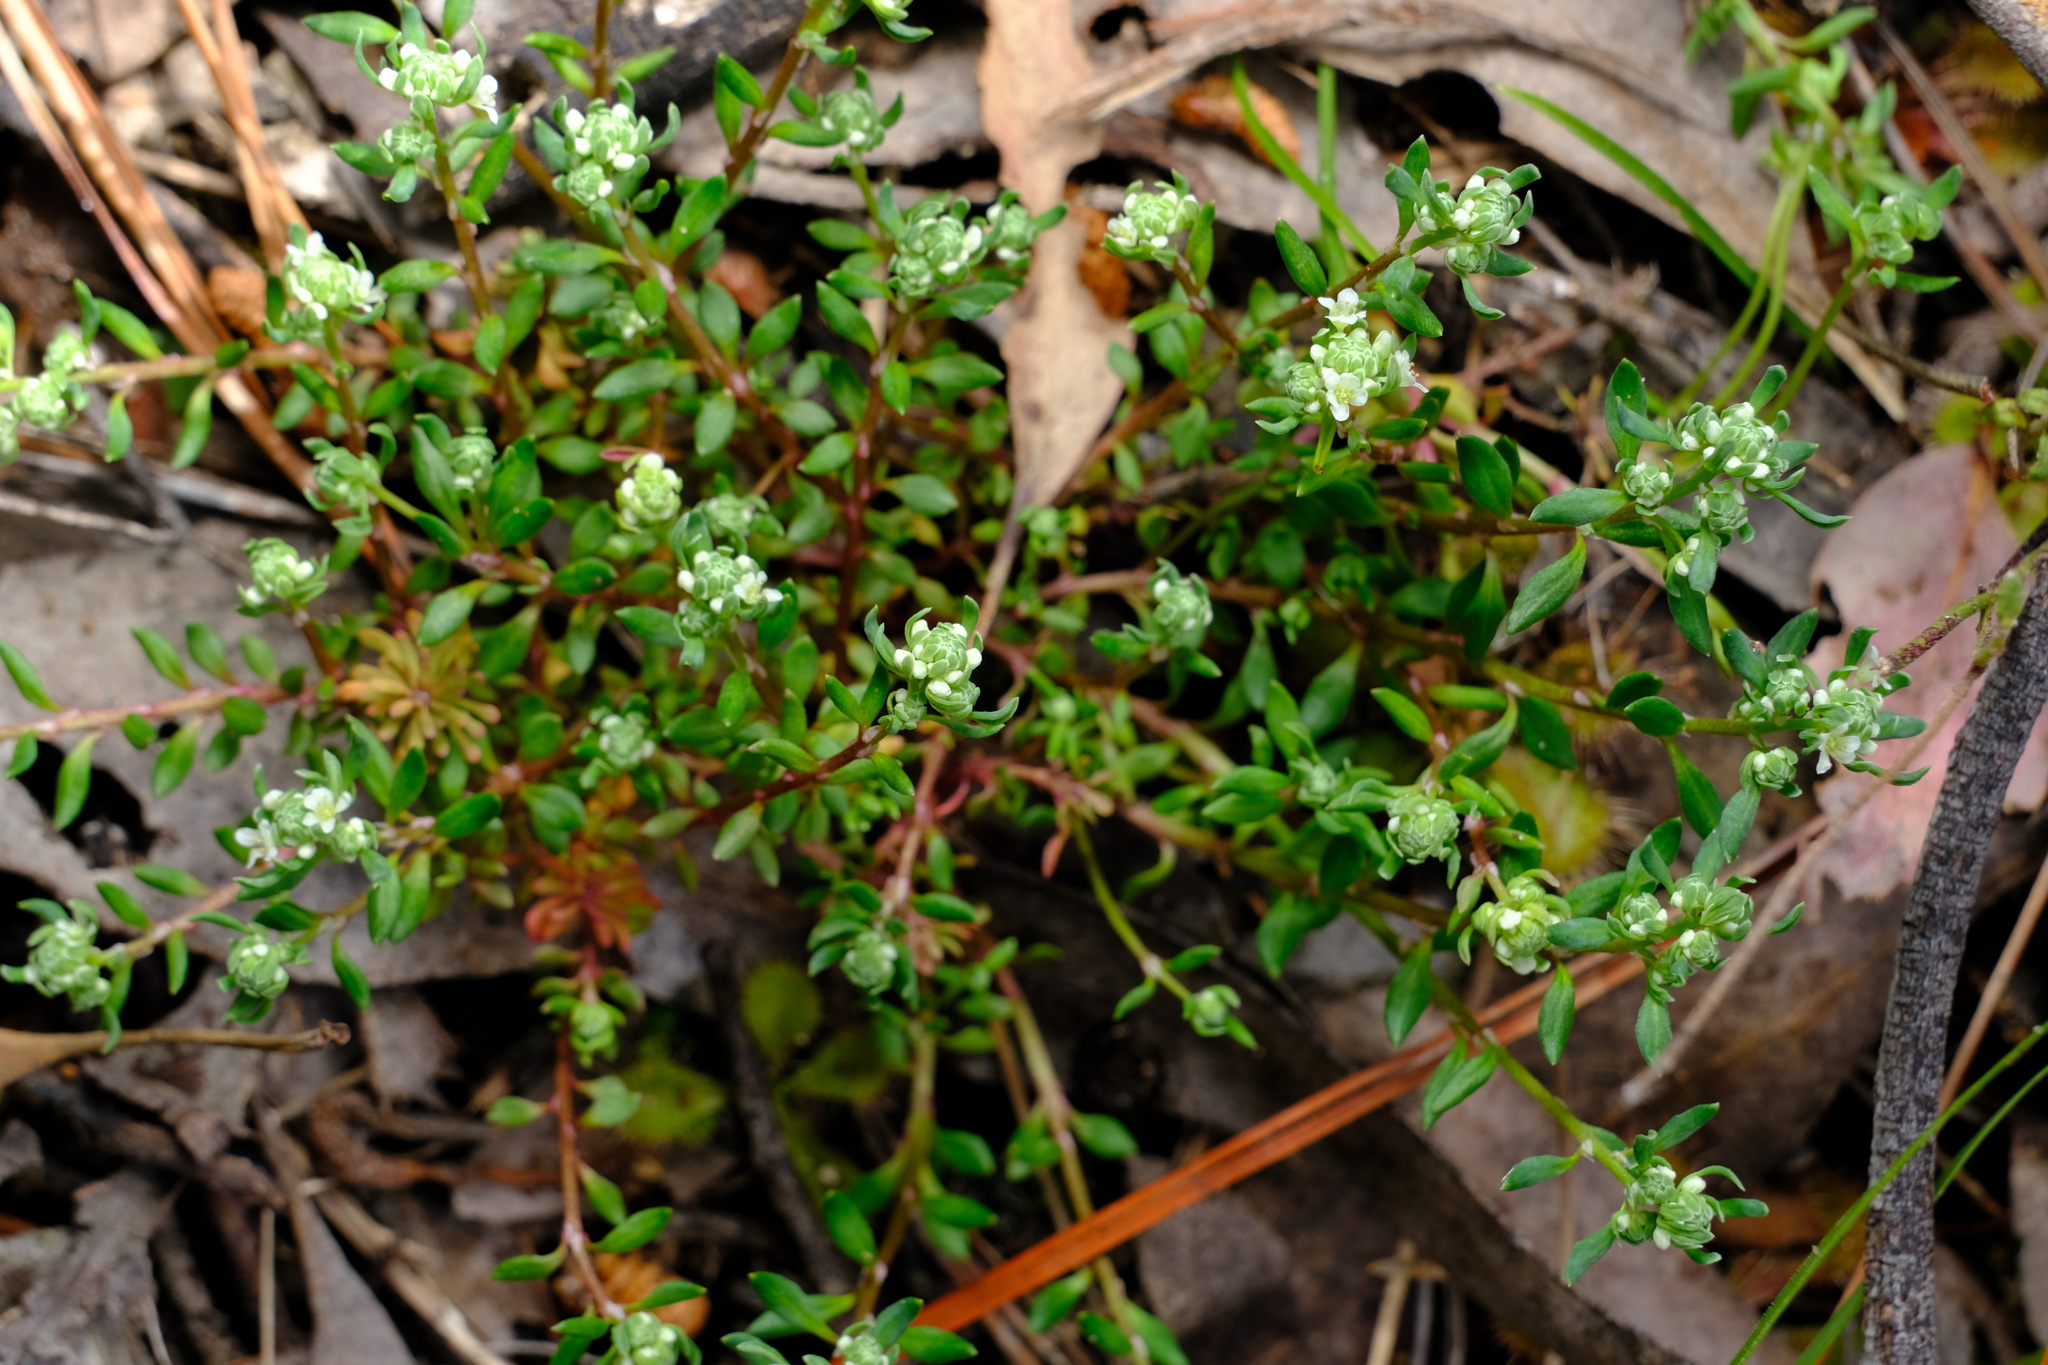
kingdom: Plantae
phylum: Tracheophyta
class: Magnoliopsida
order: Malpighiales
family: Phyllanthaceae
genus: Poranthera
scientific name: Poranthera microphylla
